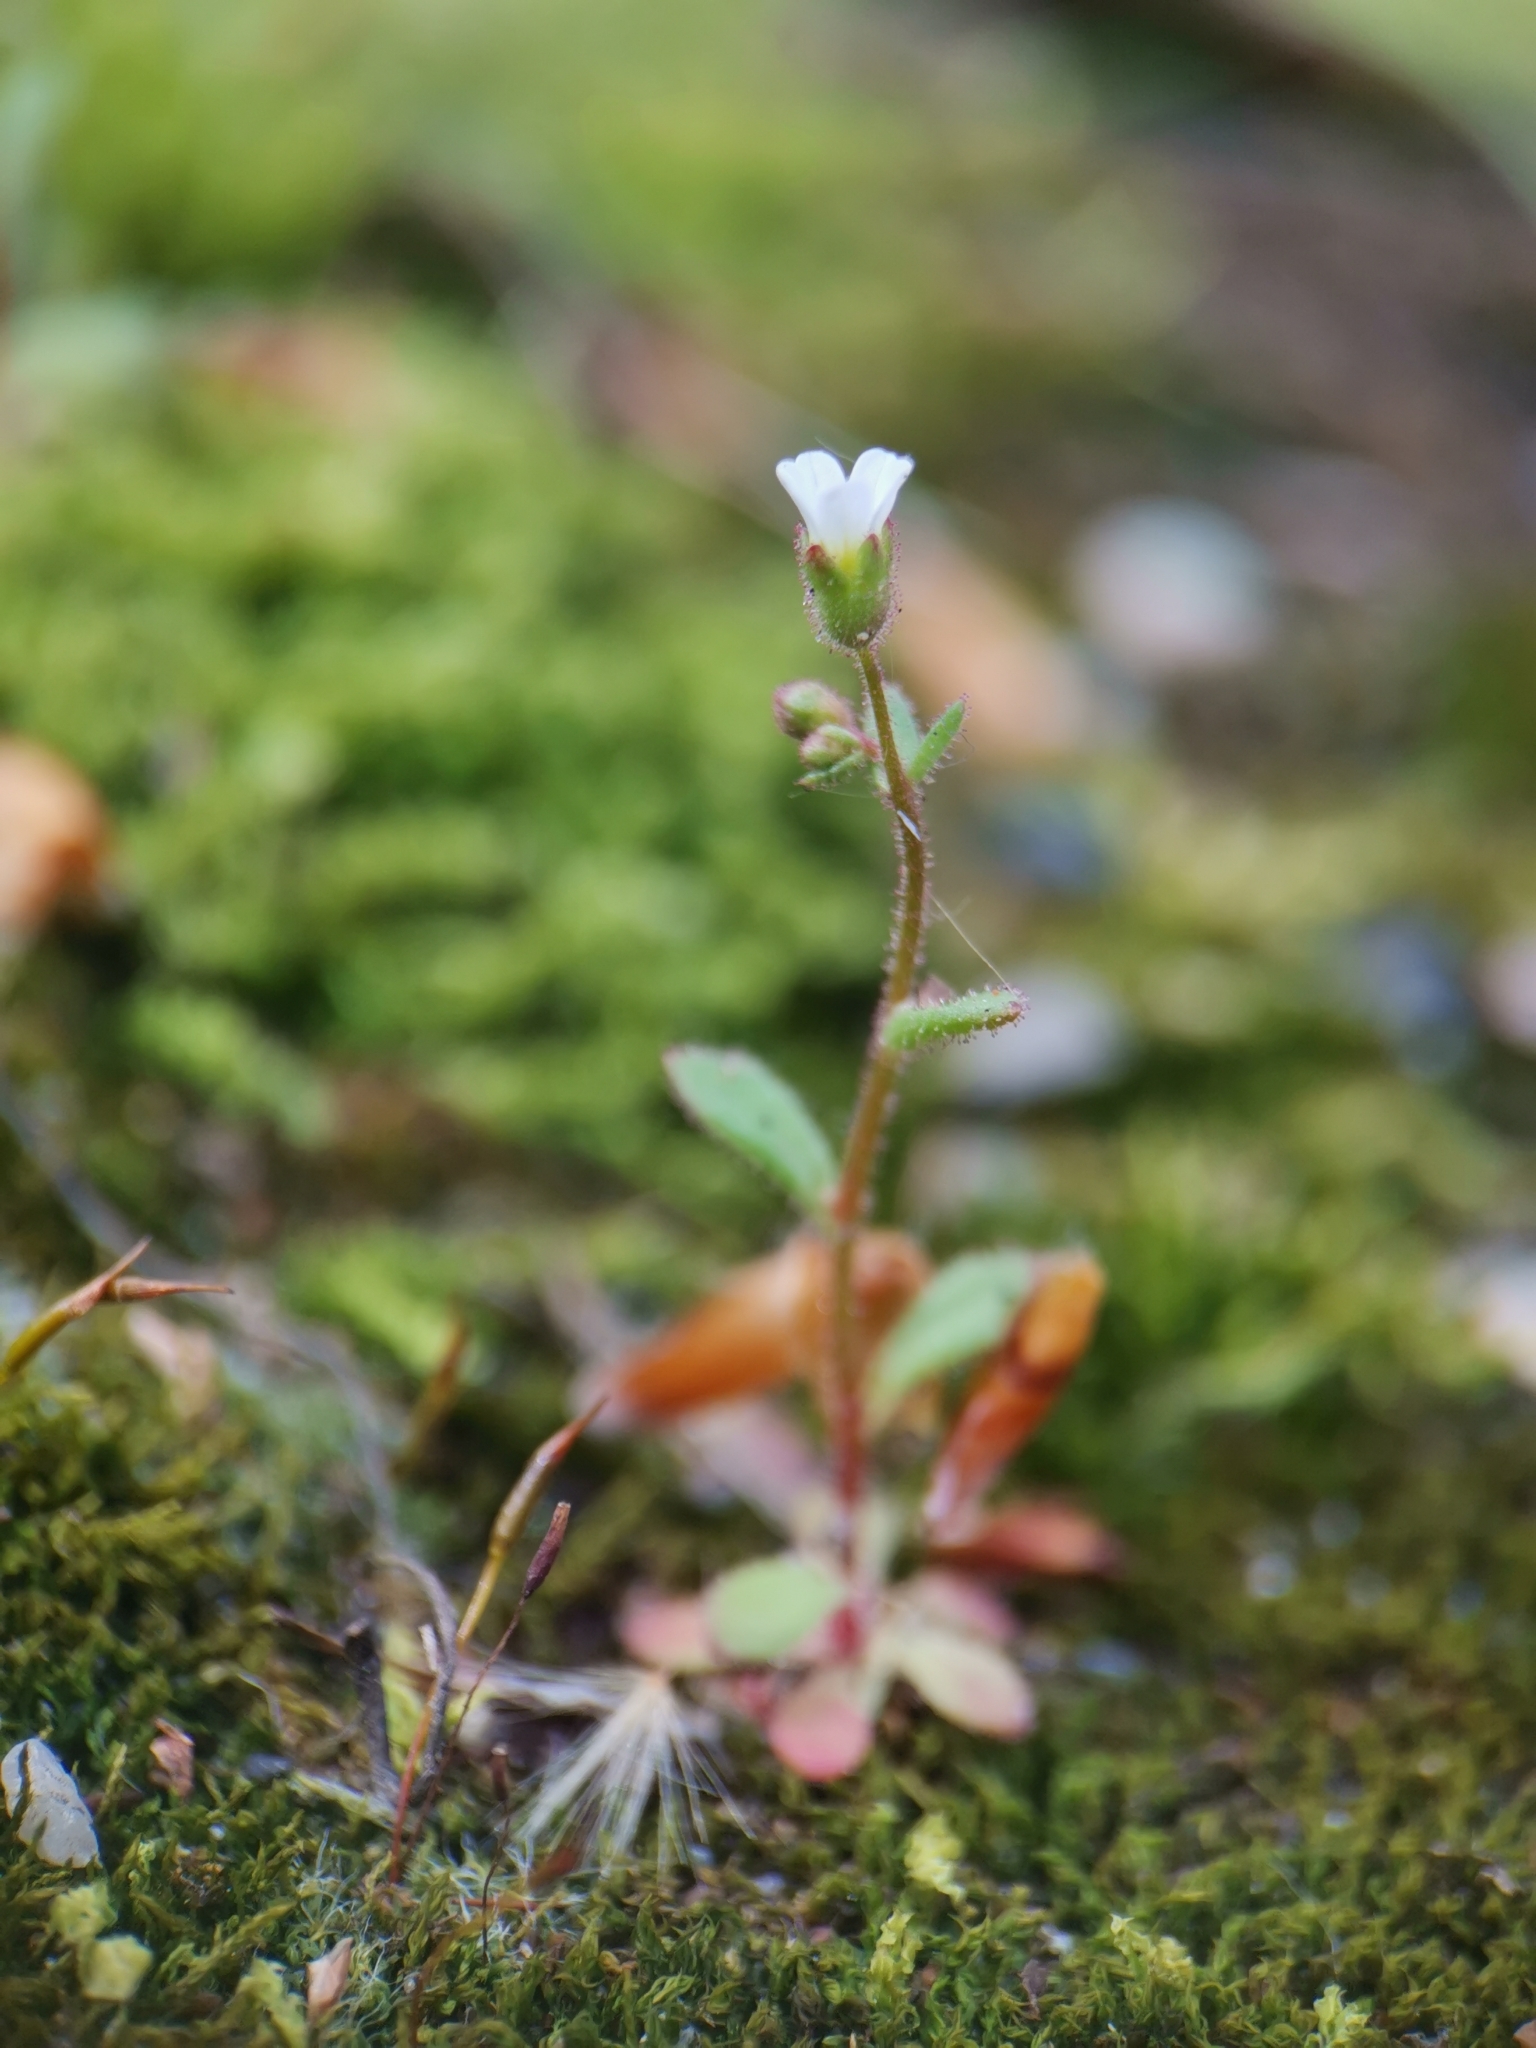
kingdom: Plantae
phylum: Tracheophyta
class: Magnoliopsida
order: Saxifragales
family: Saxifragaceae
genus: Saxifraga
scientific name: Saxifraga tridactylites
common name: Rue-leaved saxifrage
